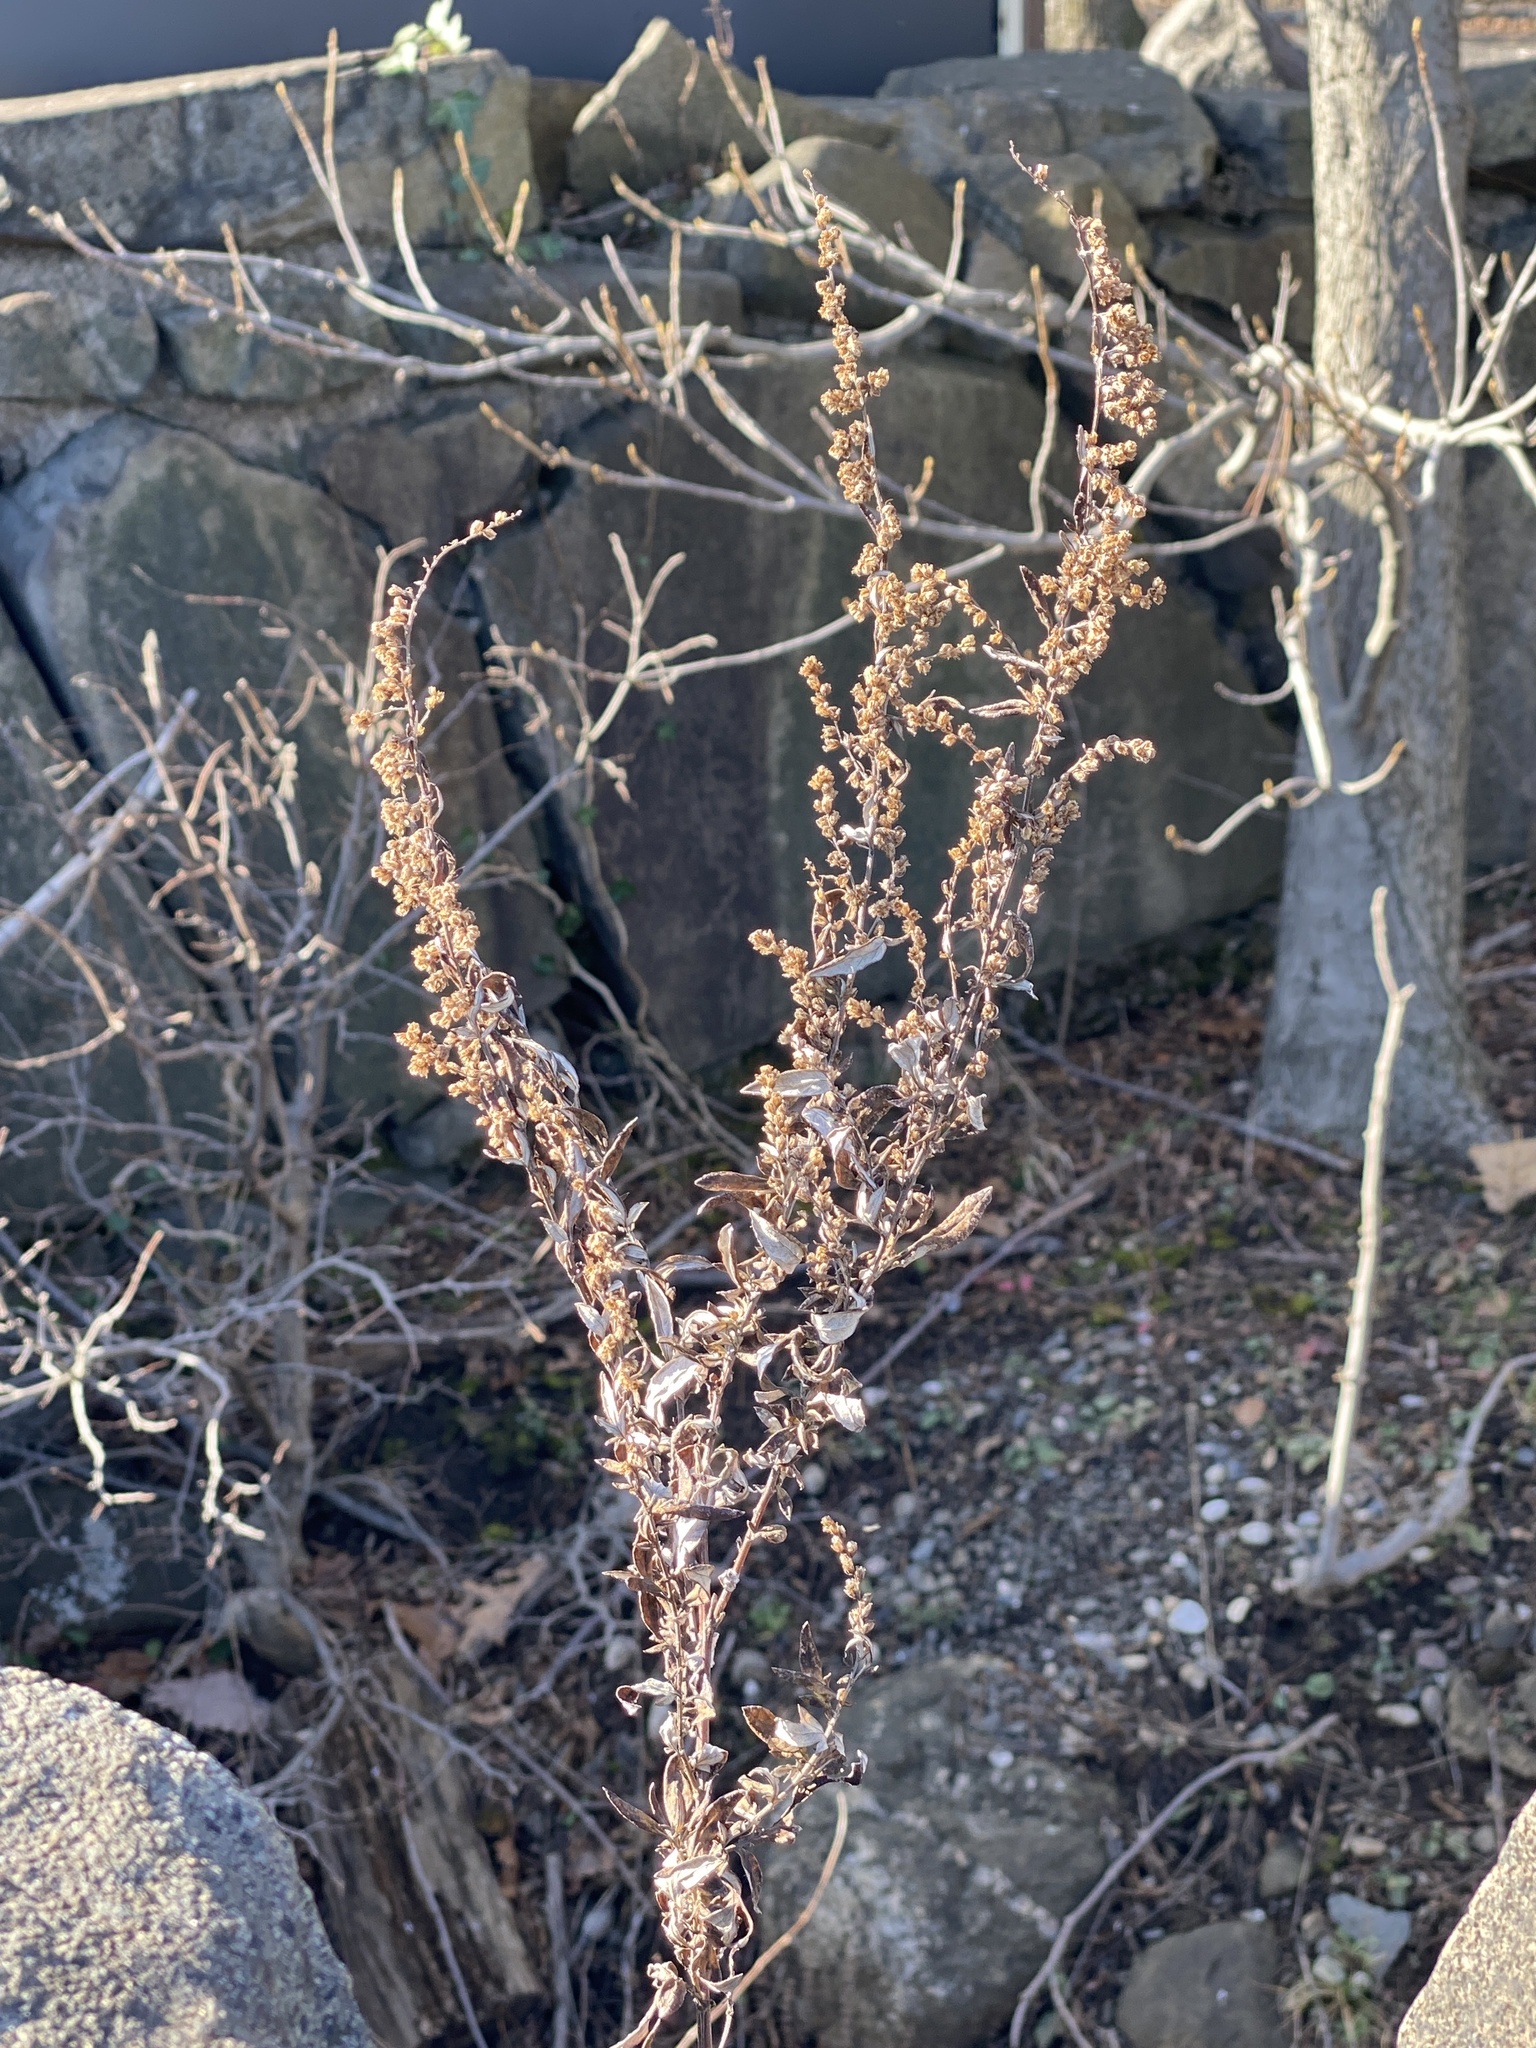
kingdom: Plantae
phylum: Tracheophyta
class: Magnoliopsida
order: Asterales
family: Asteraceae
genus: Artemisia
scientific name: Artemisia vulgaris
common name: Mugwort
